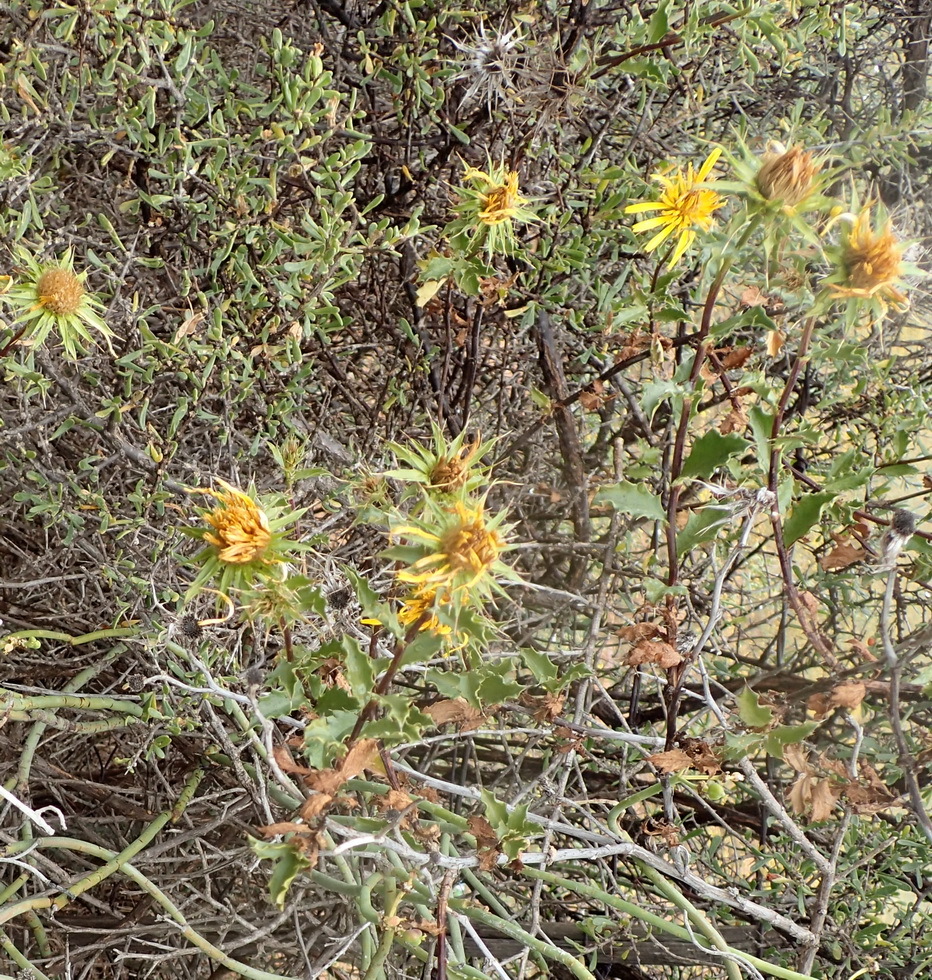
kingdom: Plantae
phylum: Tracheophyta
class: Magnoliopsida
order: Asterales
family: Asteraceae
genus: Berkheya
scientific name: Berkheya spinosa
